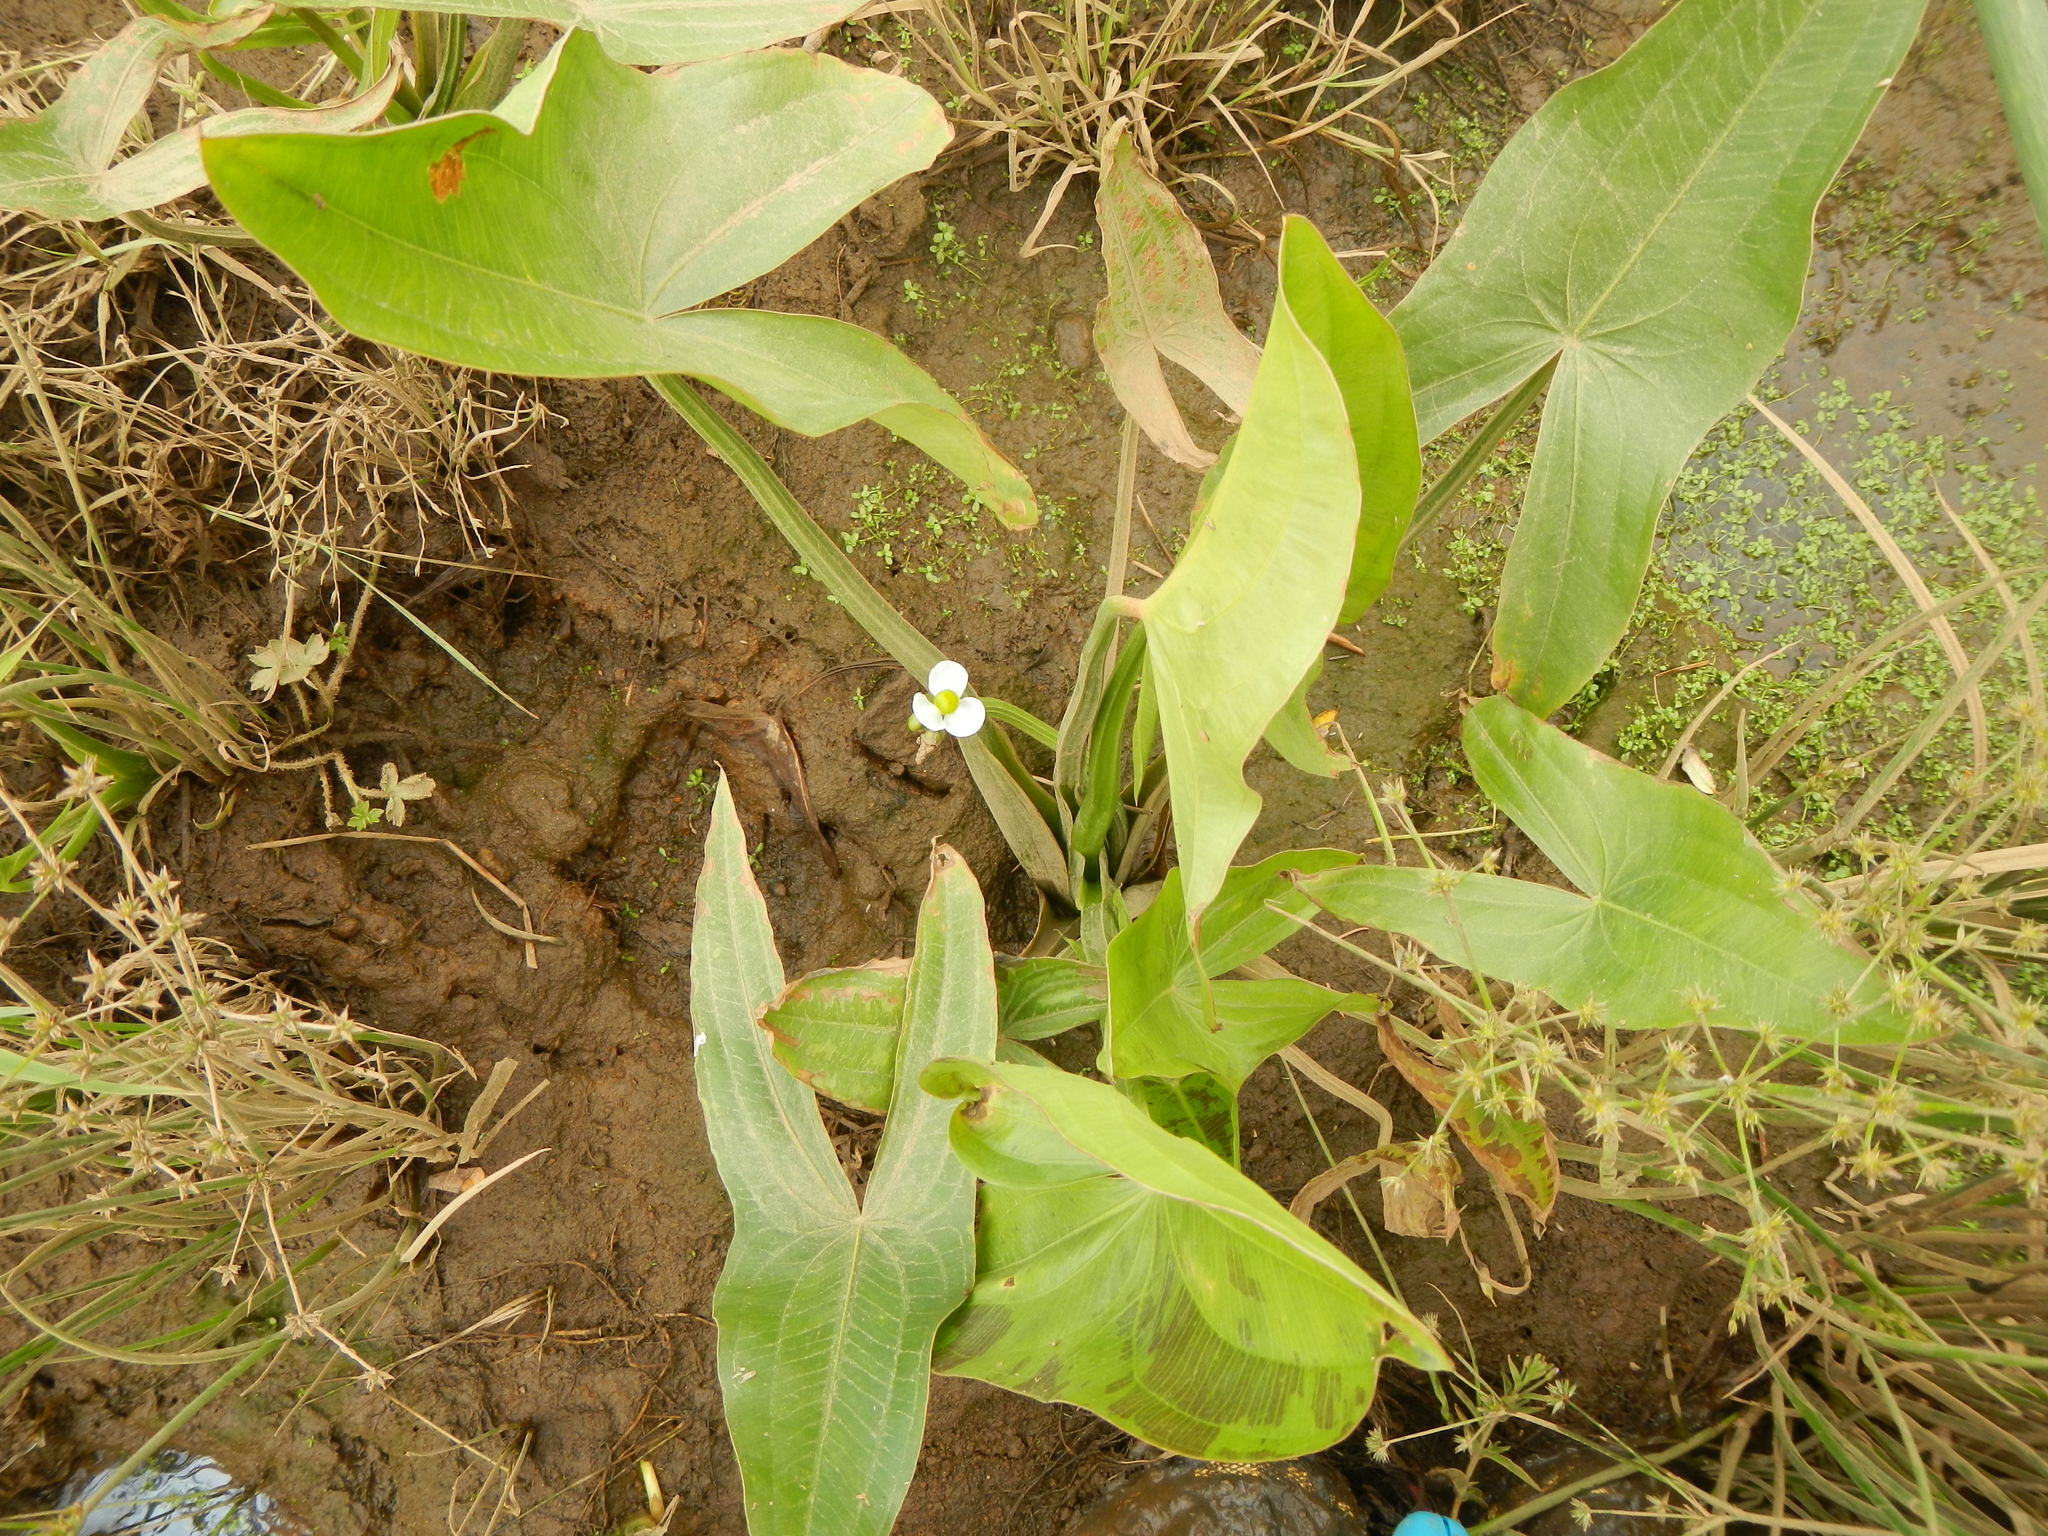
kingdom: Plantae
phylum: Tracheophyta
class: Liliopsida
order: Alismatales
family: Alismataceae
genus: Sagittaria
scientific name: Sagittaria latifolia
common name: Duck-potato
